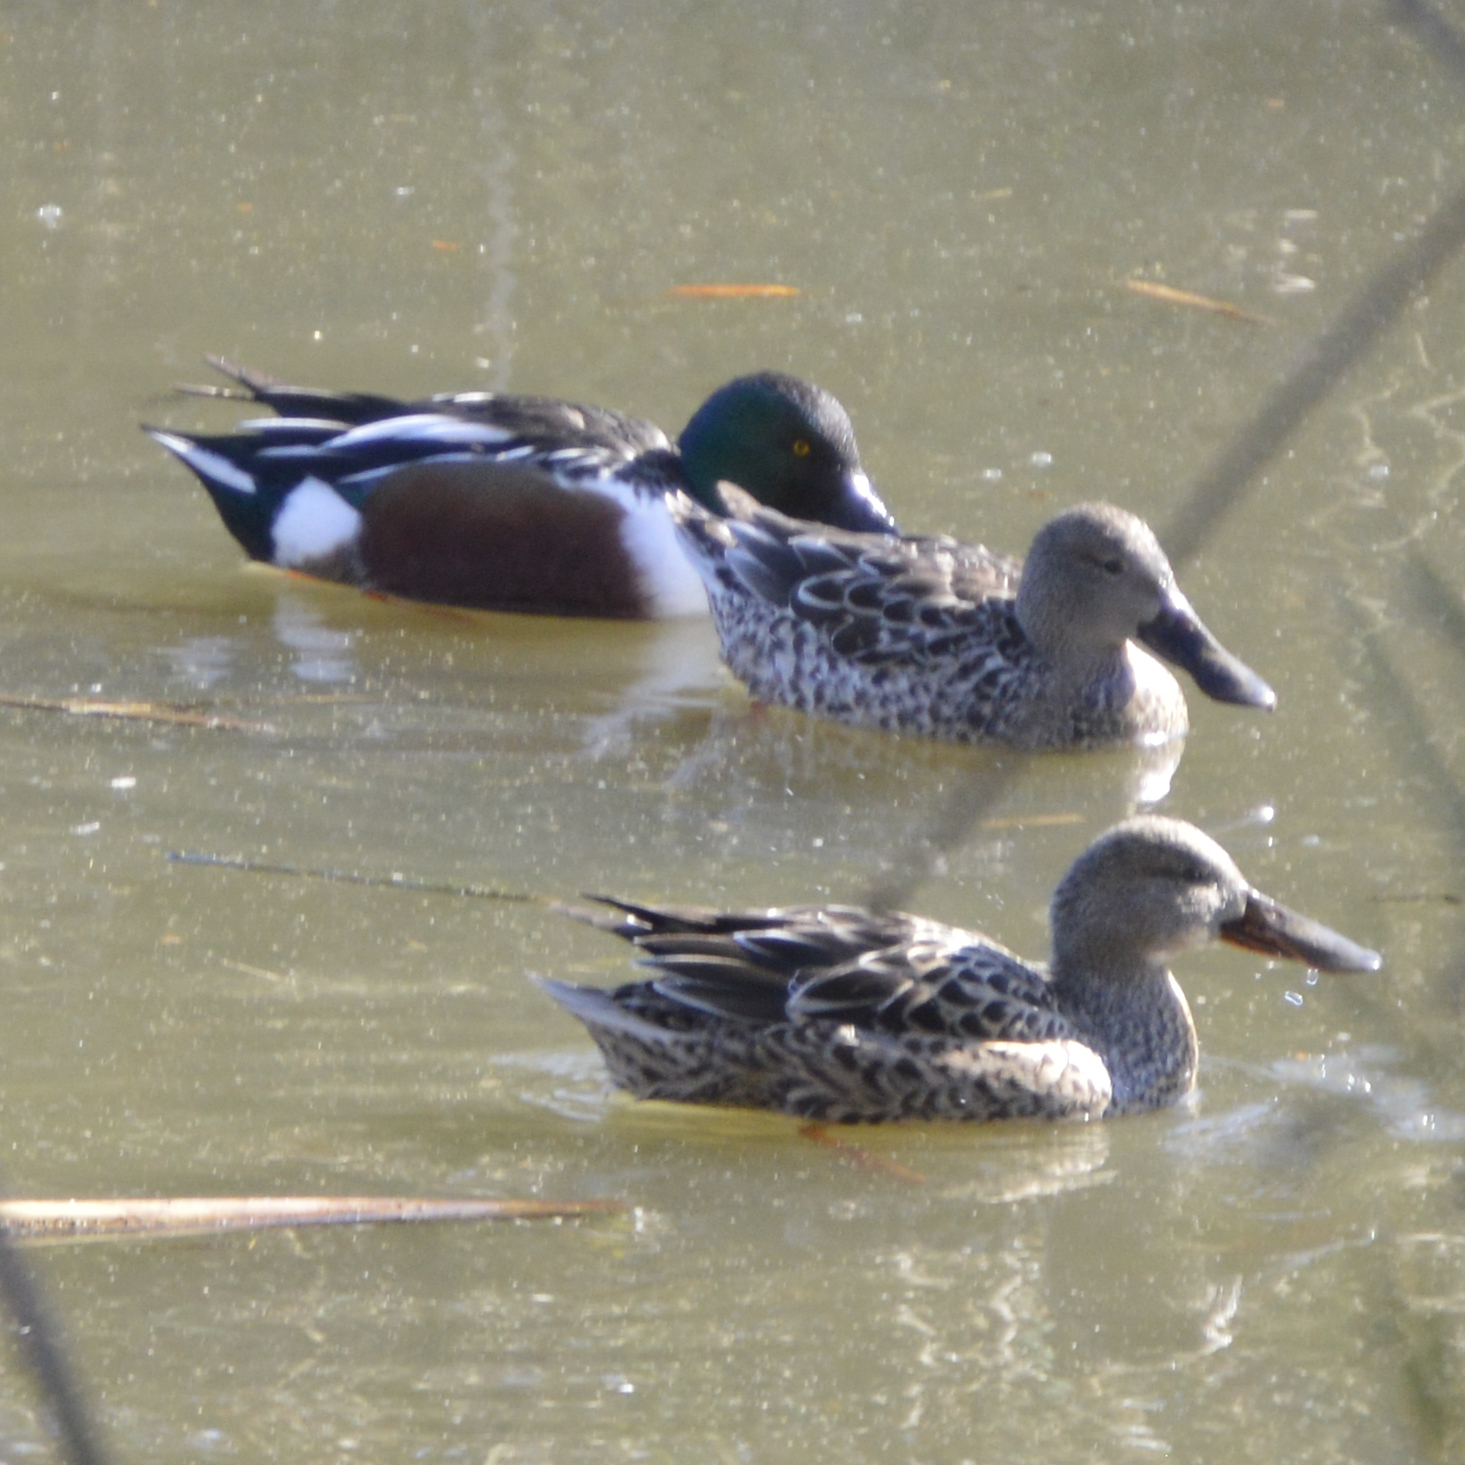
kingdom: Animalia
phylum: Chordata
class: Aves
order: Anseriformes
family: Anatidae
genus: Spatula
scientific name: Spatula clypeata
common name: Northern shoveler
